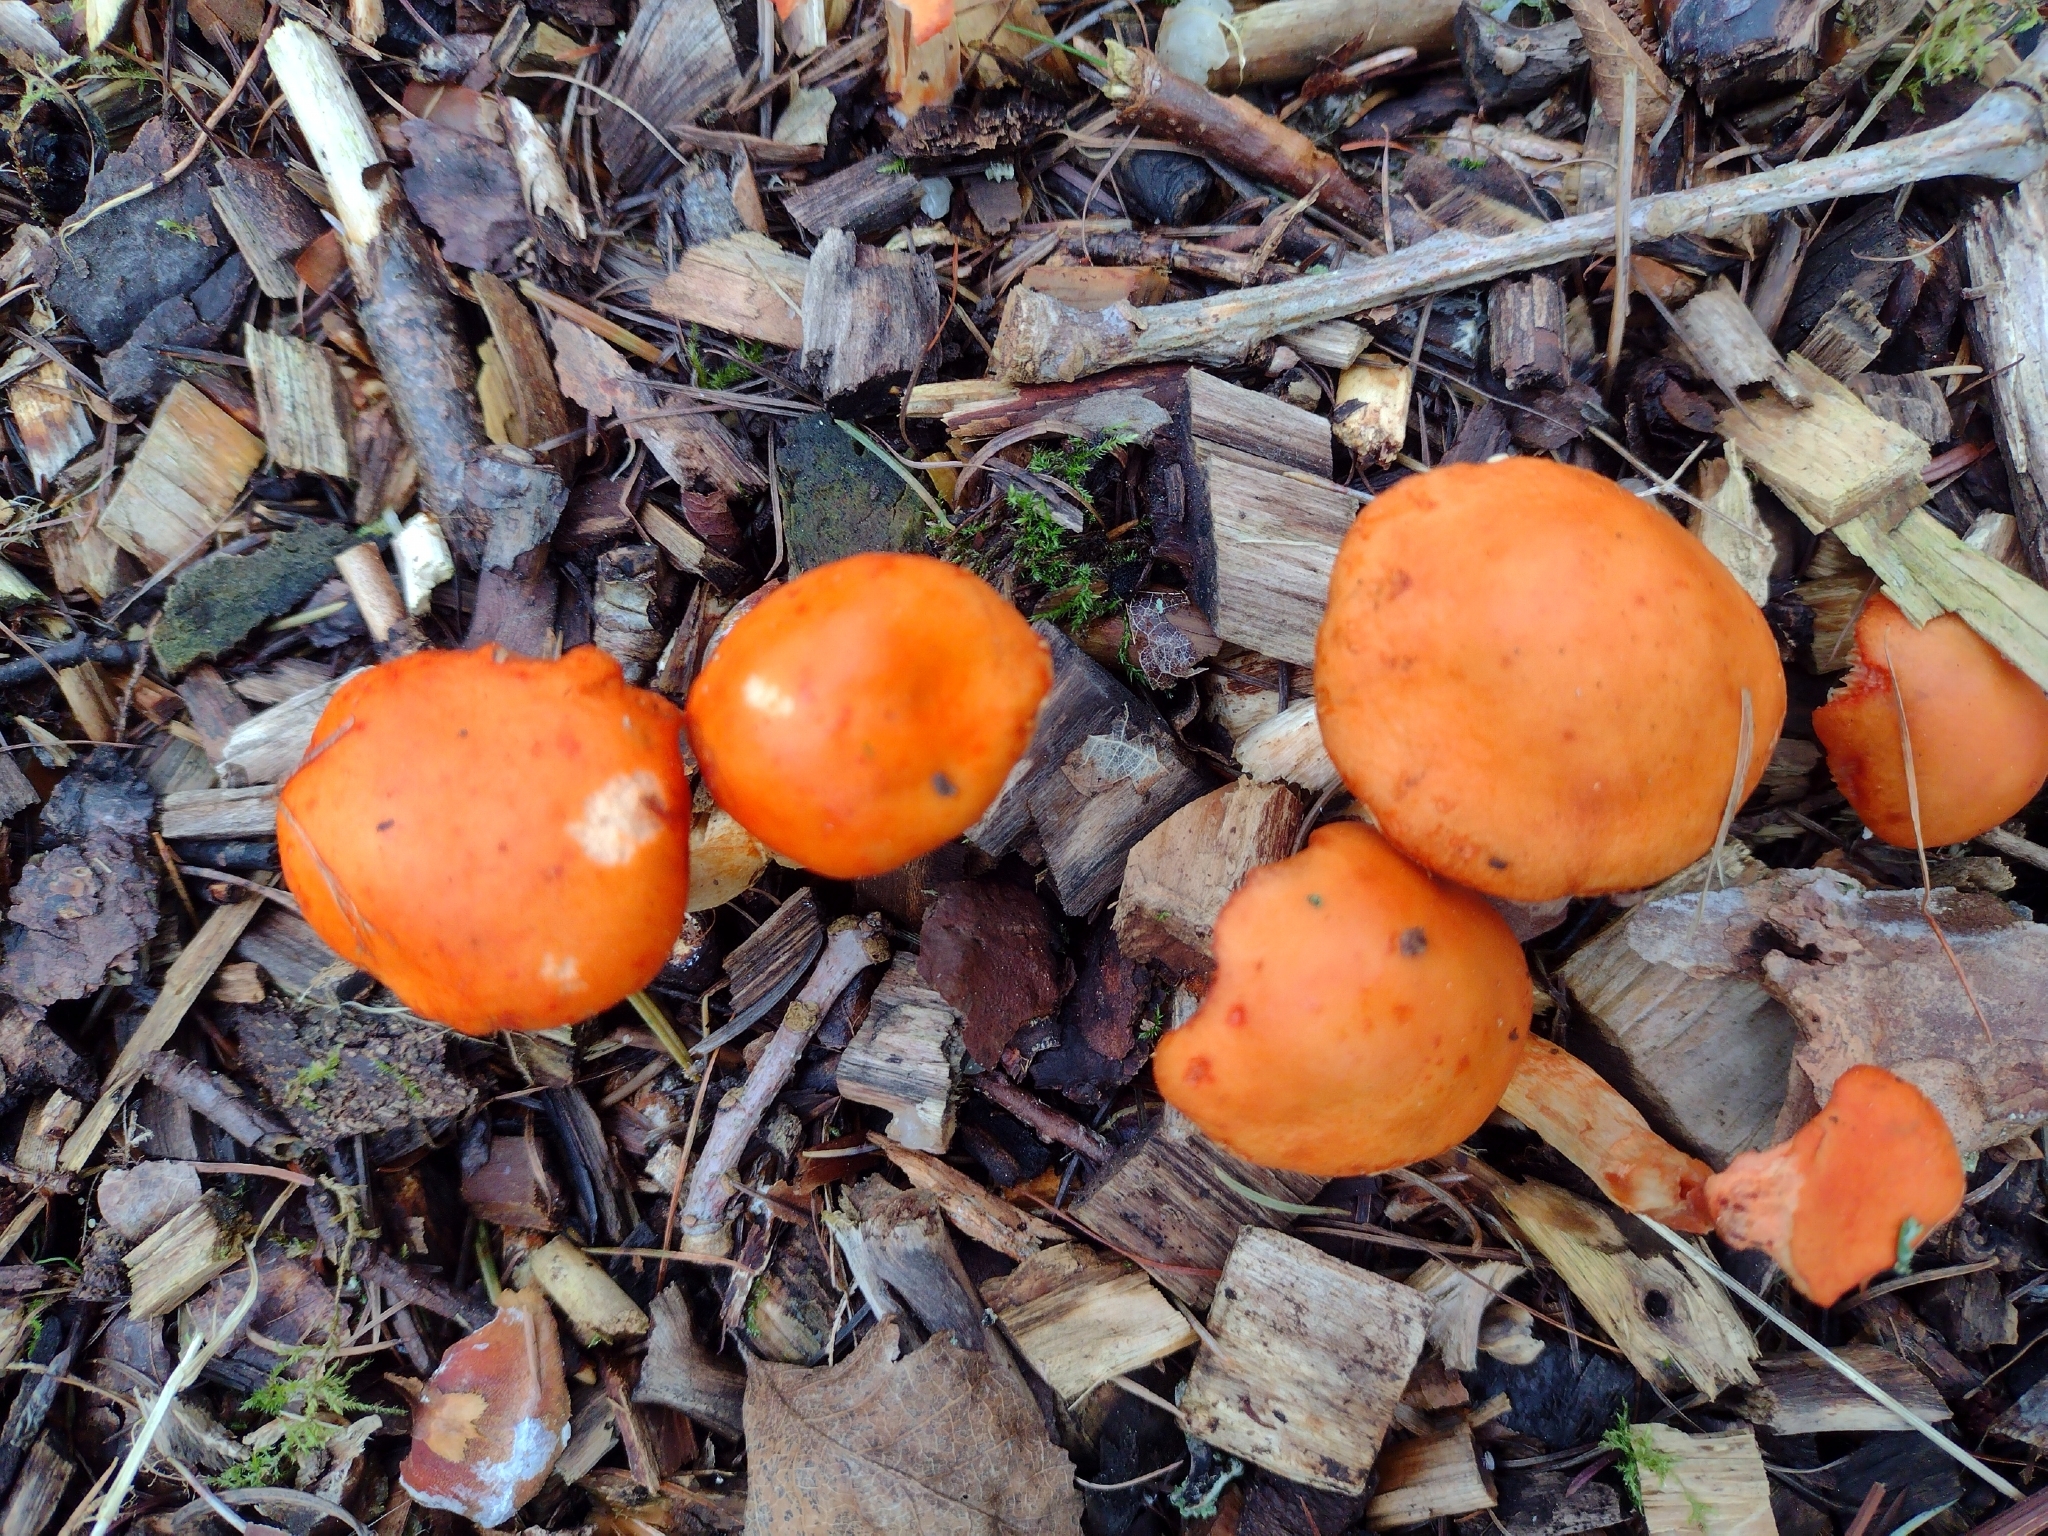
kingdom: Fungi
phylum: Basidiomycota
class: Agaricomycetes
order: Agaricales
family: Strophariaceae
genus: Leratiomyces
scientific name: Leratiomyces ceres
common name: Redlead roundhead
